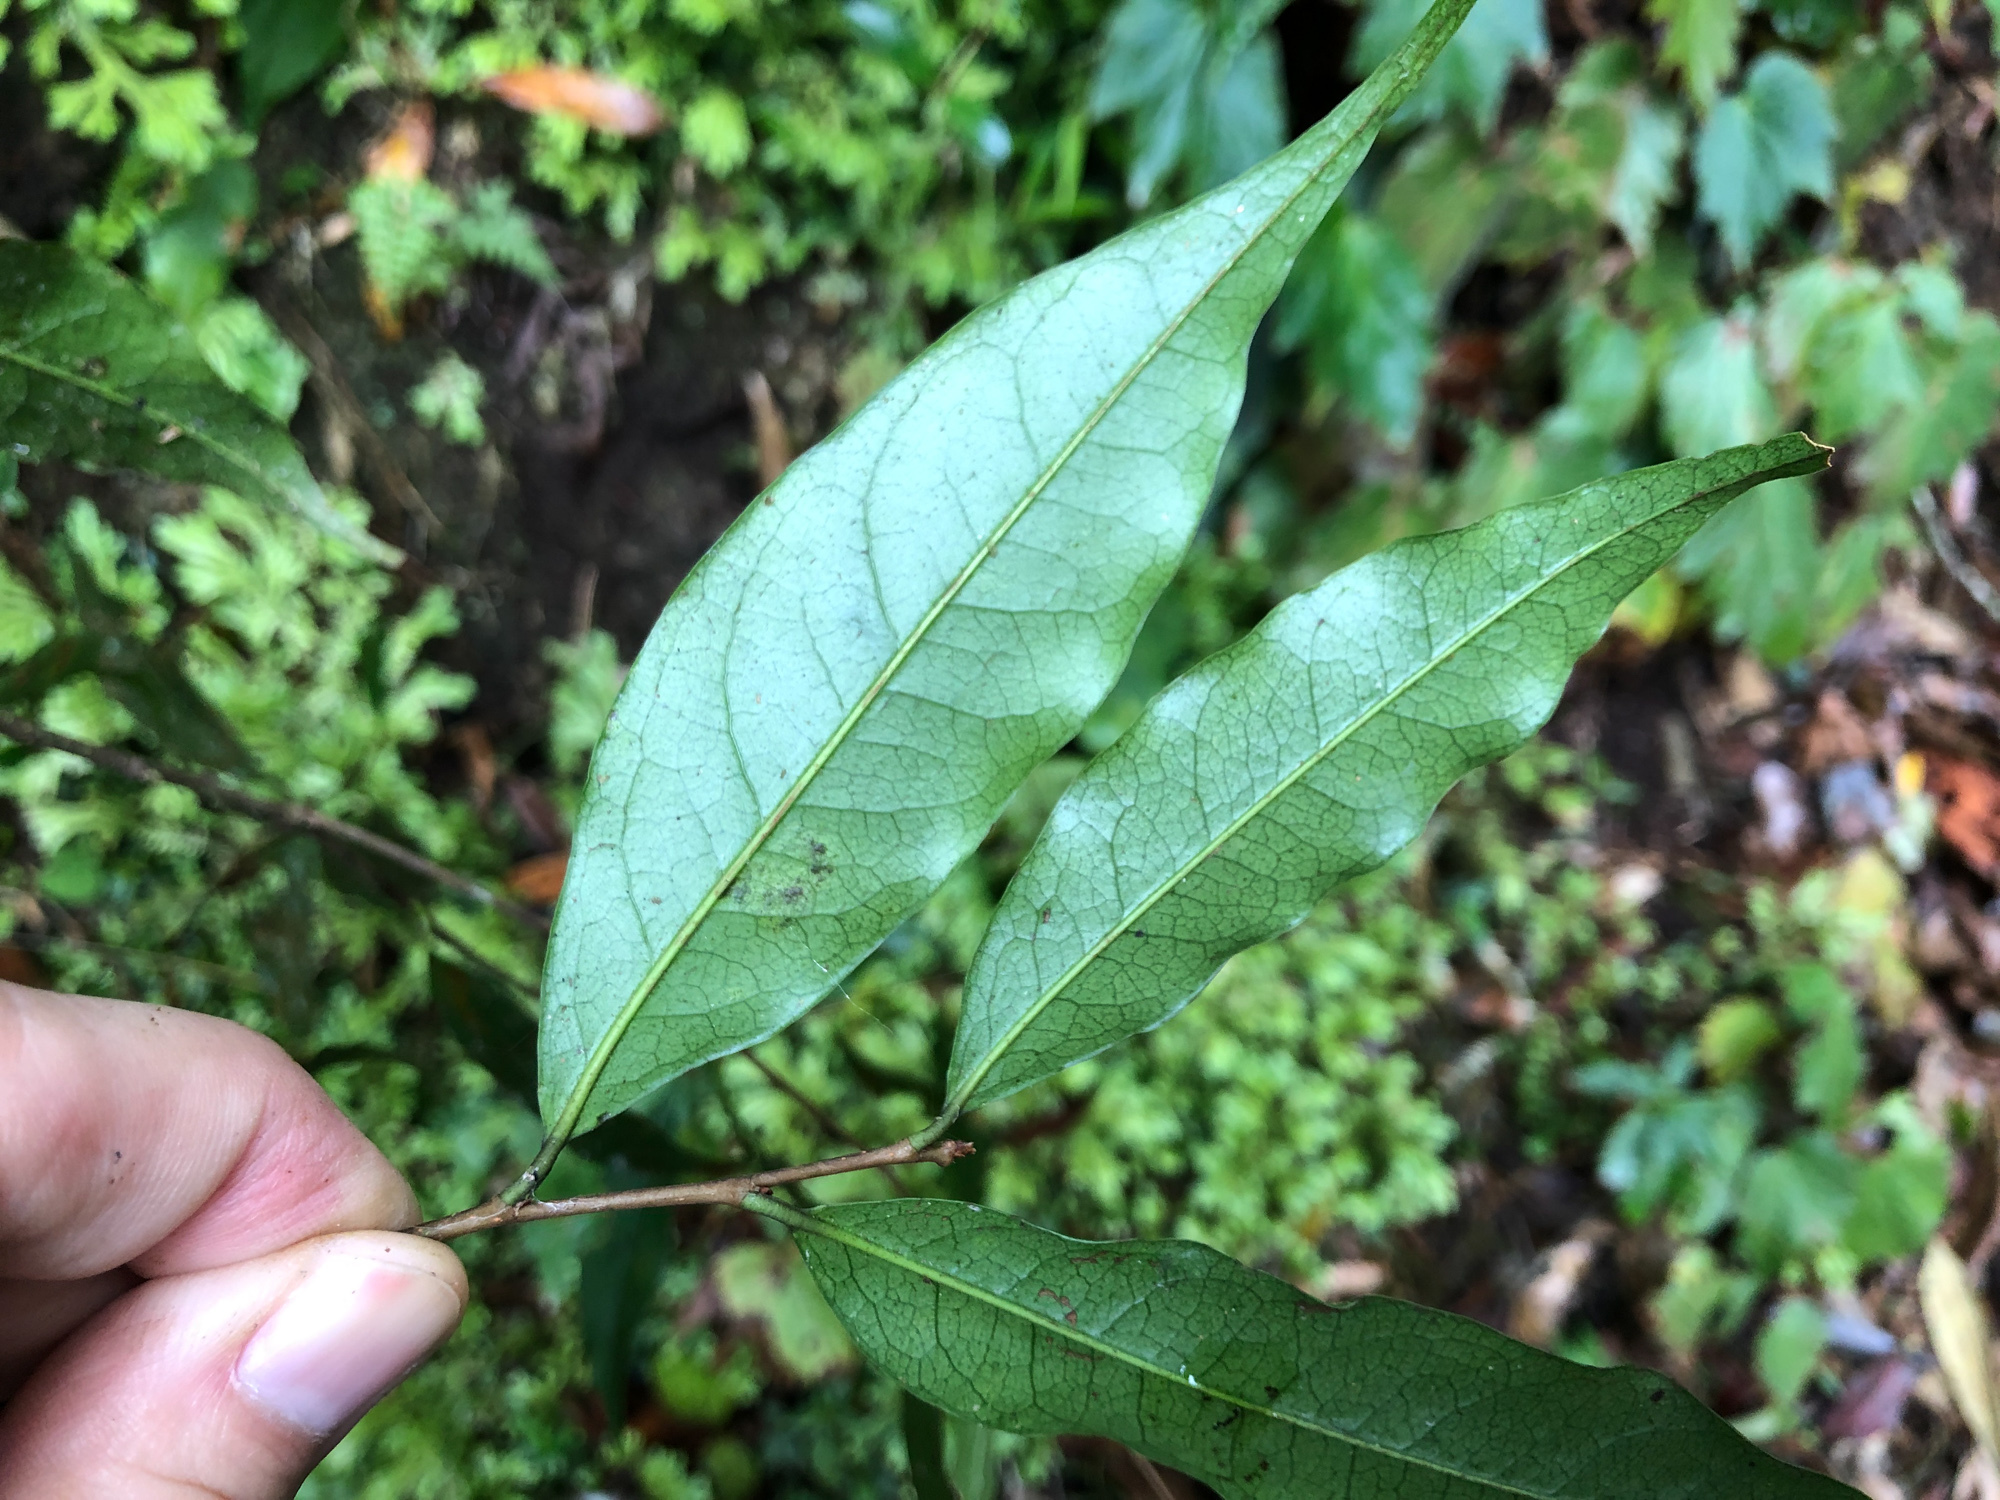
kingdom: Plantae
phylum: Tracheophyta
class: Magnoliopsida
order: Rosales
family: Rosaceae
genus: Prunus
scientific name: Prunus phaeosticta
